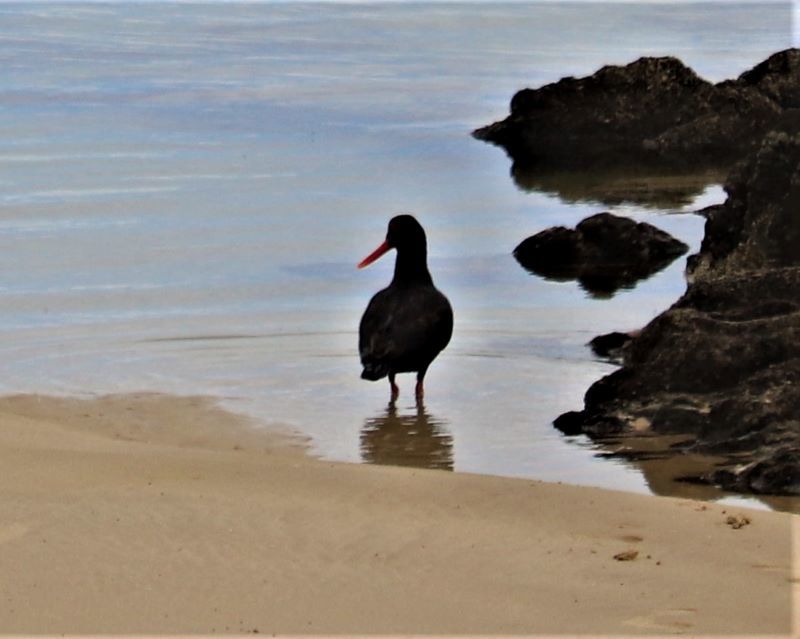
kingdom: Animalia
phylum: Chordata
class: Aves
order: Charadriiformes
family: Haematopodidae
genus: Haematopus
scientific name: Haematopus moquini
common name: African oystercatcher
